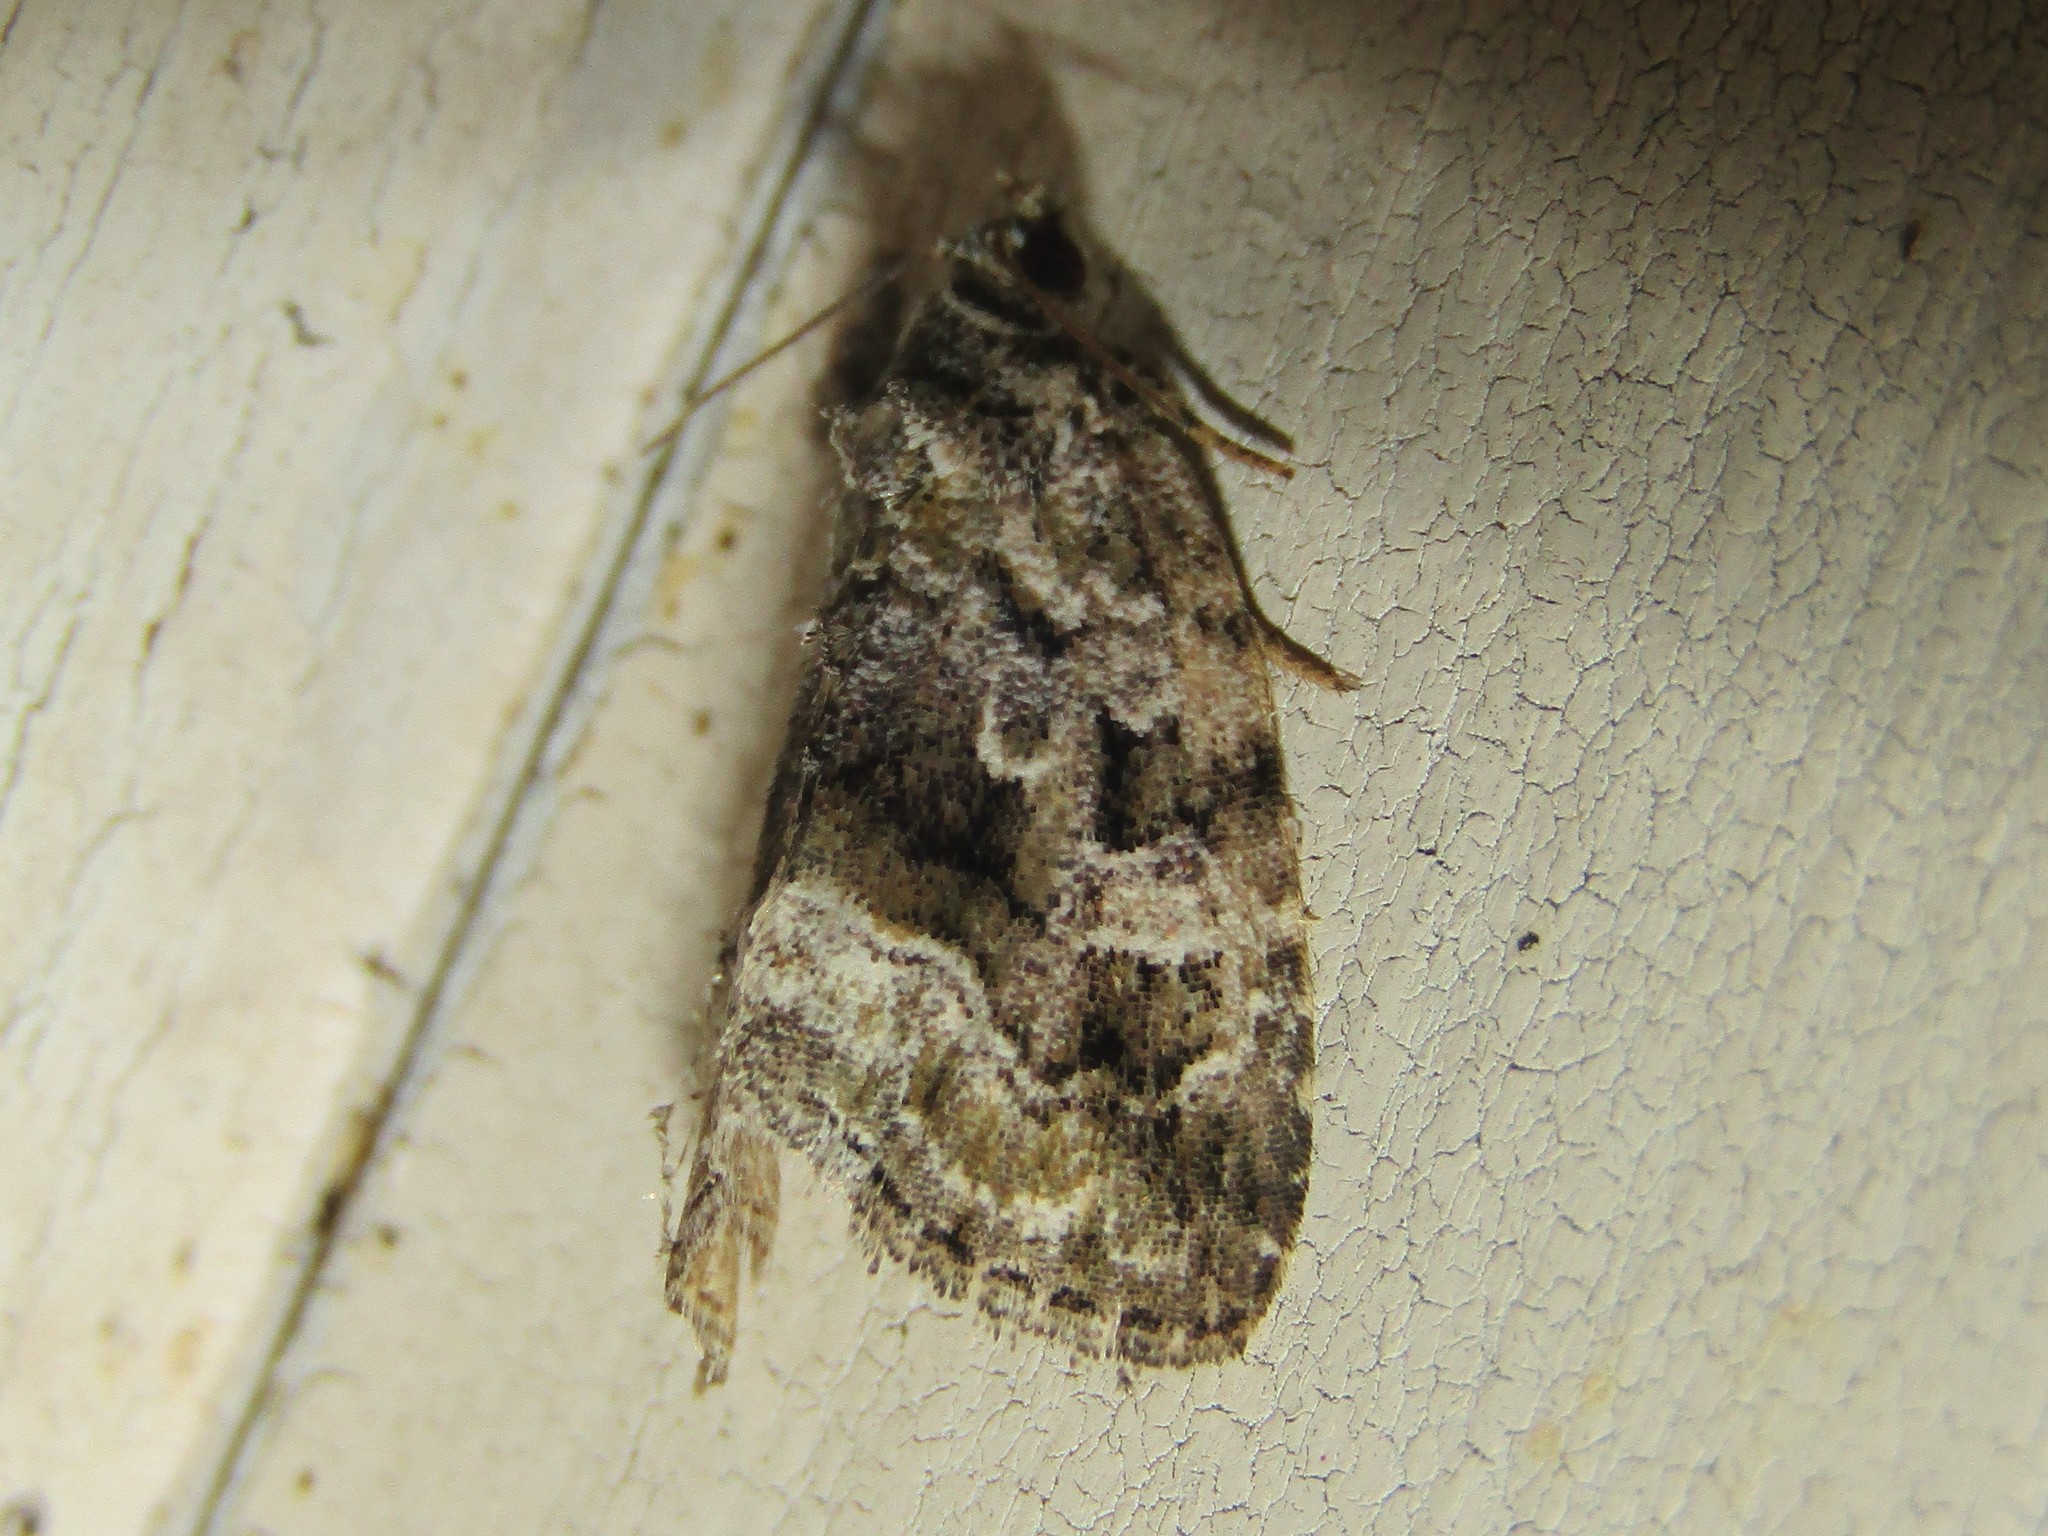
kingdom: Animalia
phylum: Arthropoda
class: Insecta
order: Lepidoptera
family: Noctuidae
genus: Protodeltote
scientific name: Protodeltote muscosula
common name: Large mossy glyph
